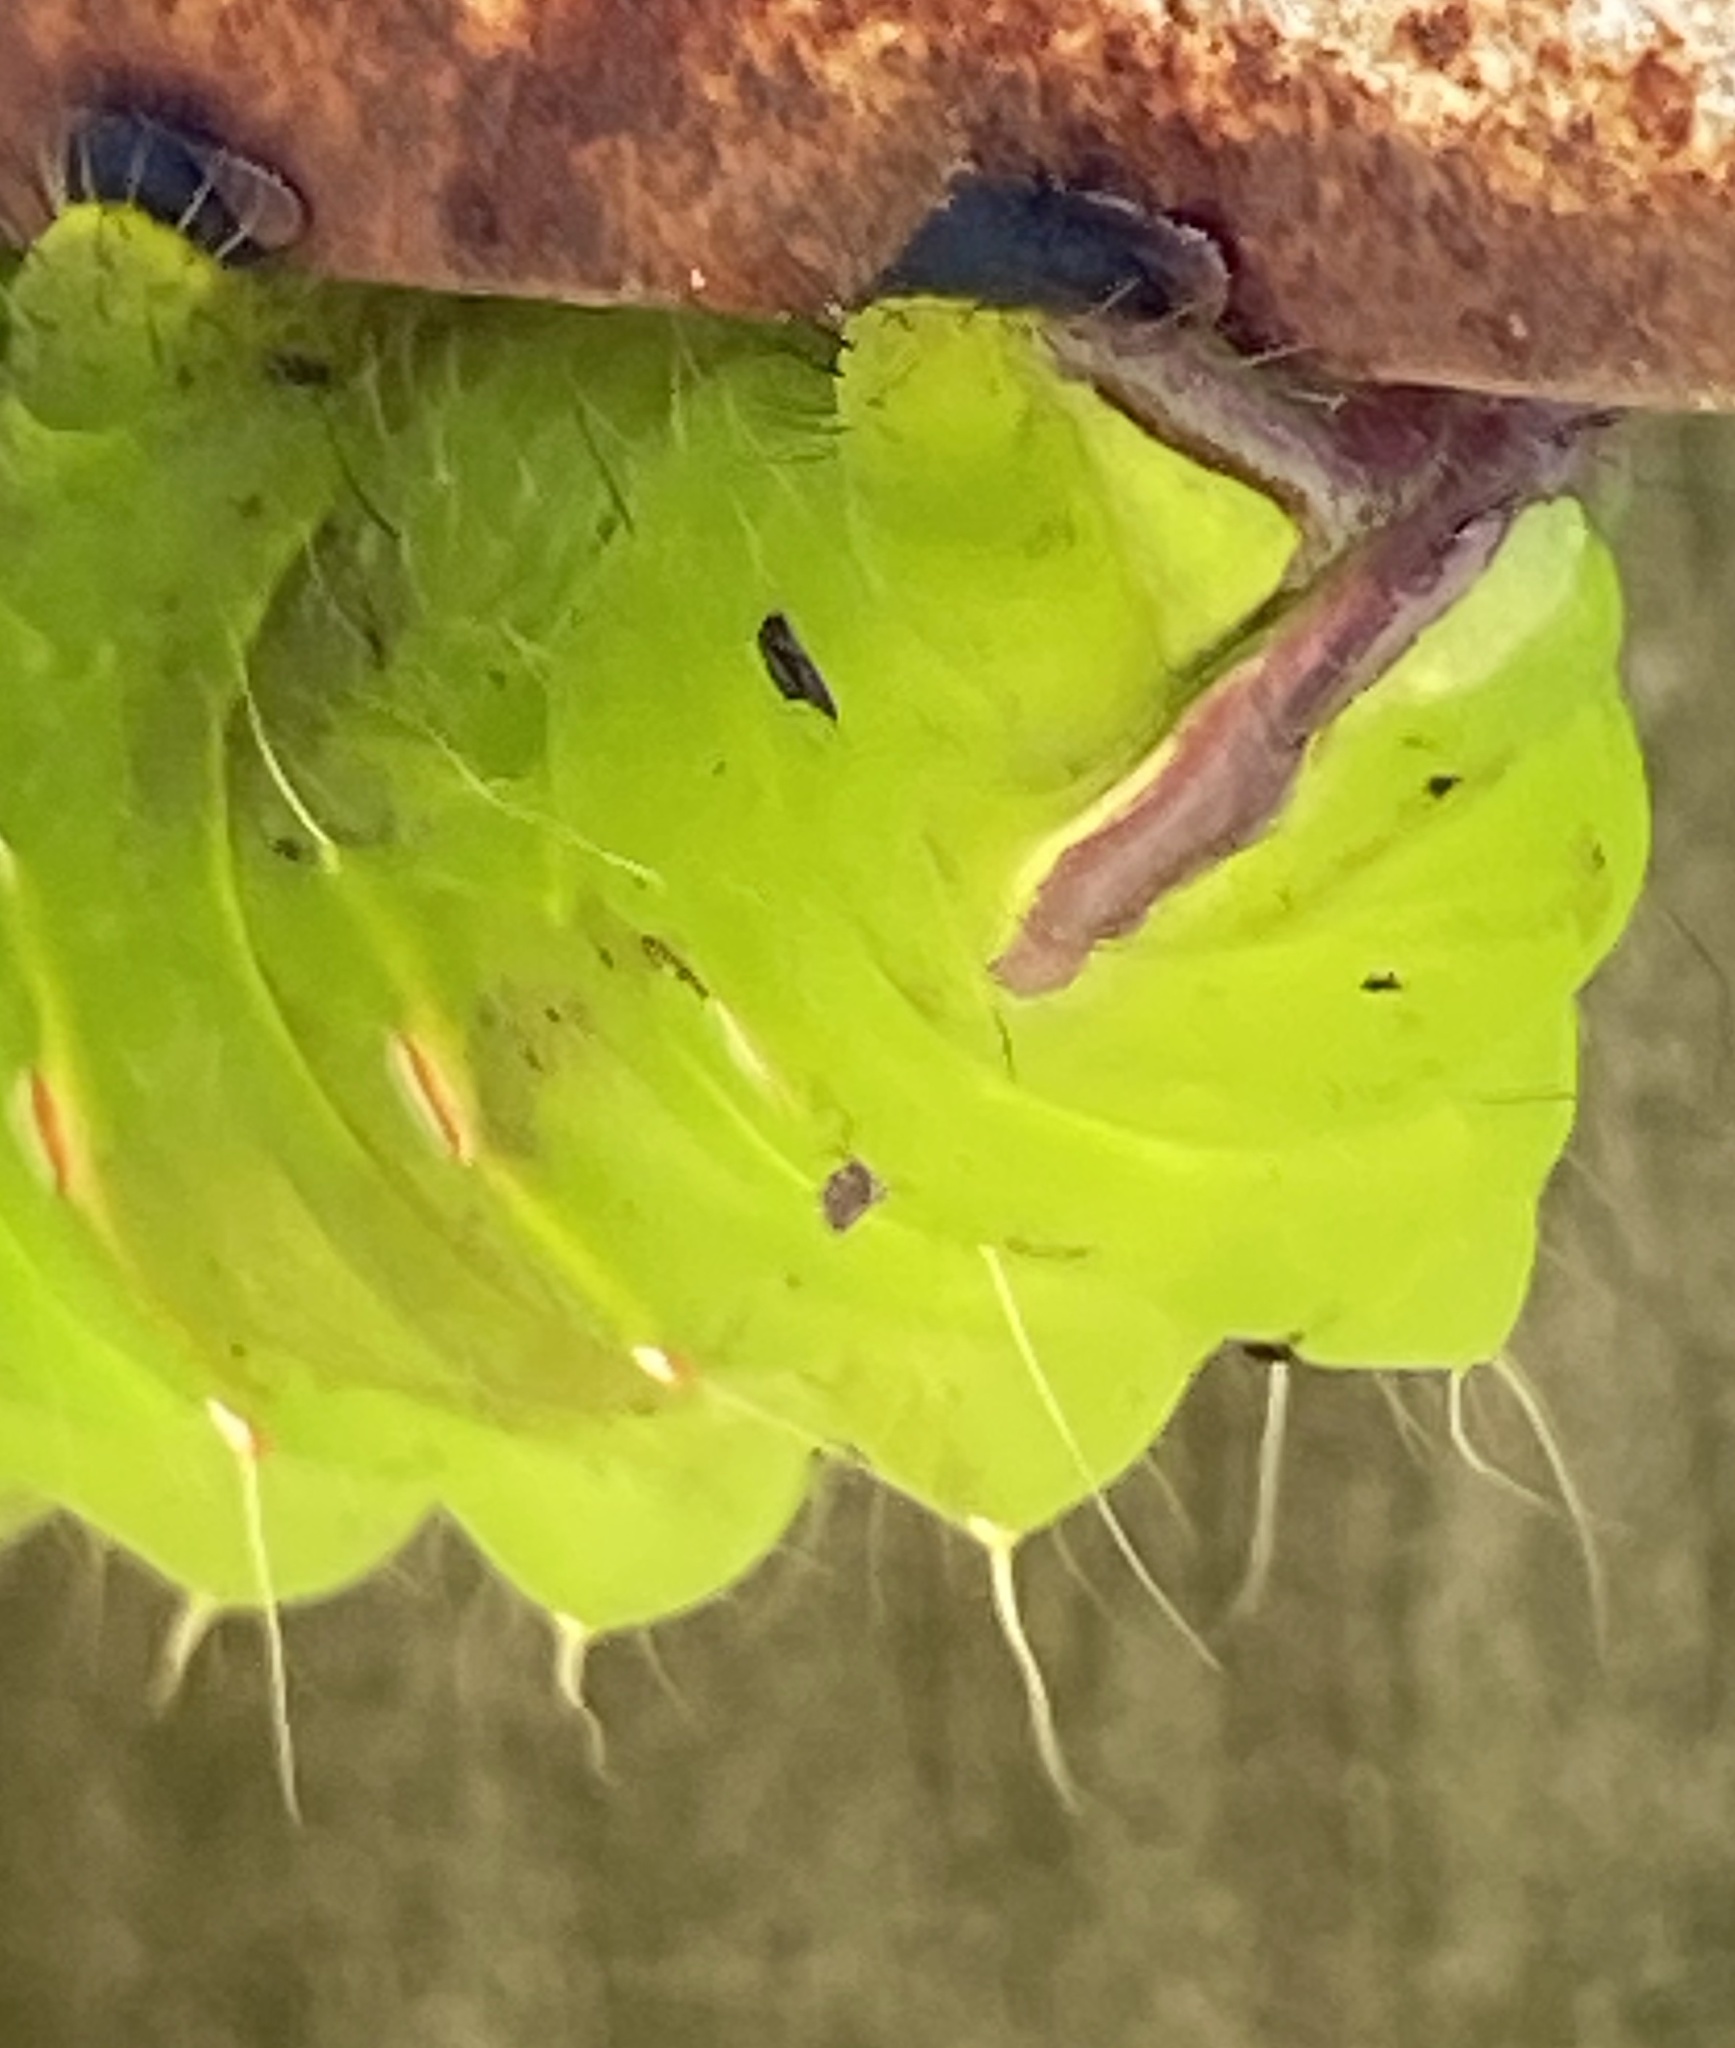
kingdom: Animalia
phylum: Arthropoda
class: Insecta
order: Lepidoptera
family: Saturniidae
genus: Antheraea
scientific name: Antheraea polyphemus
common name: Polyphemus moth
